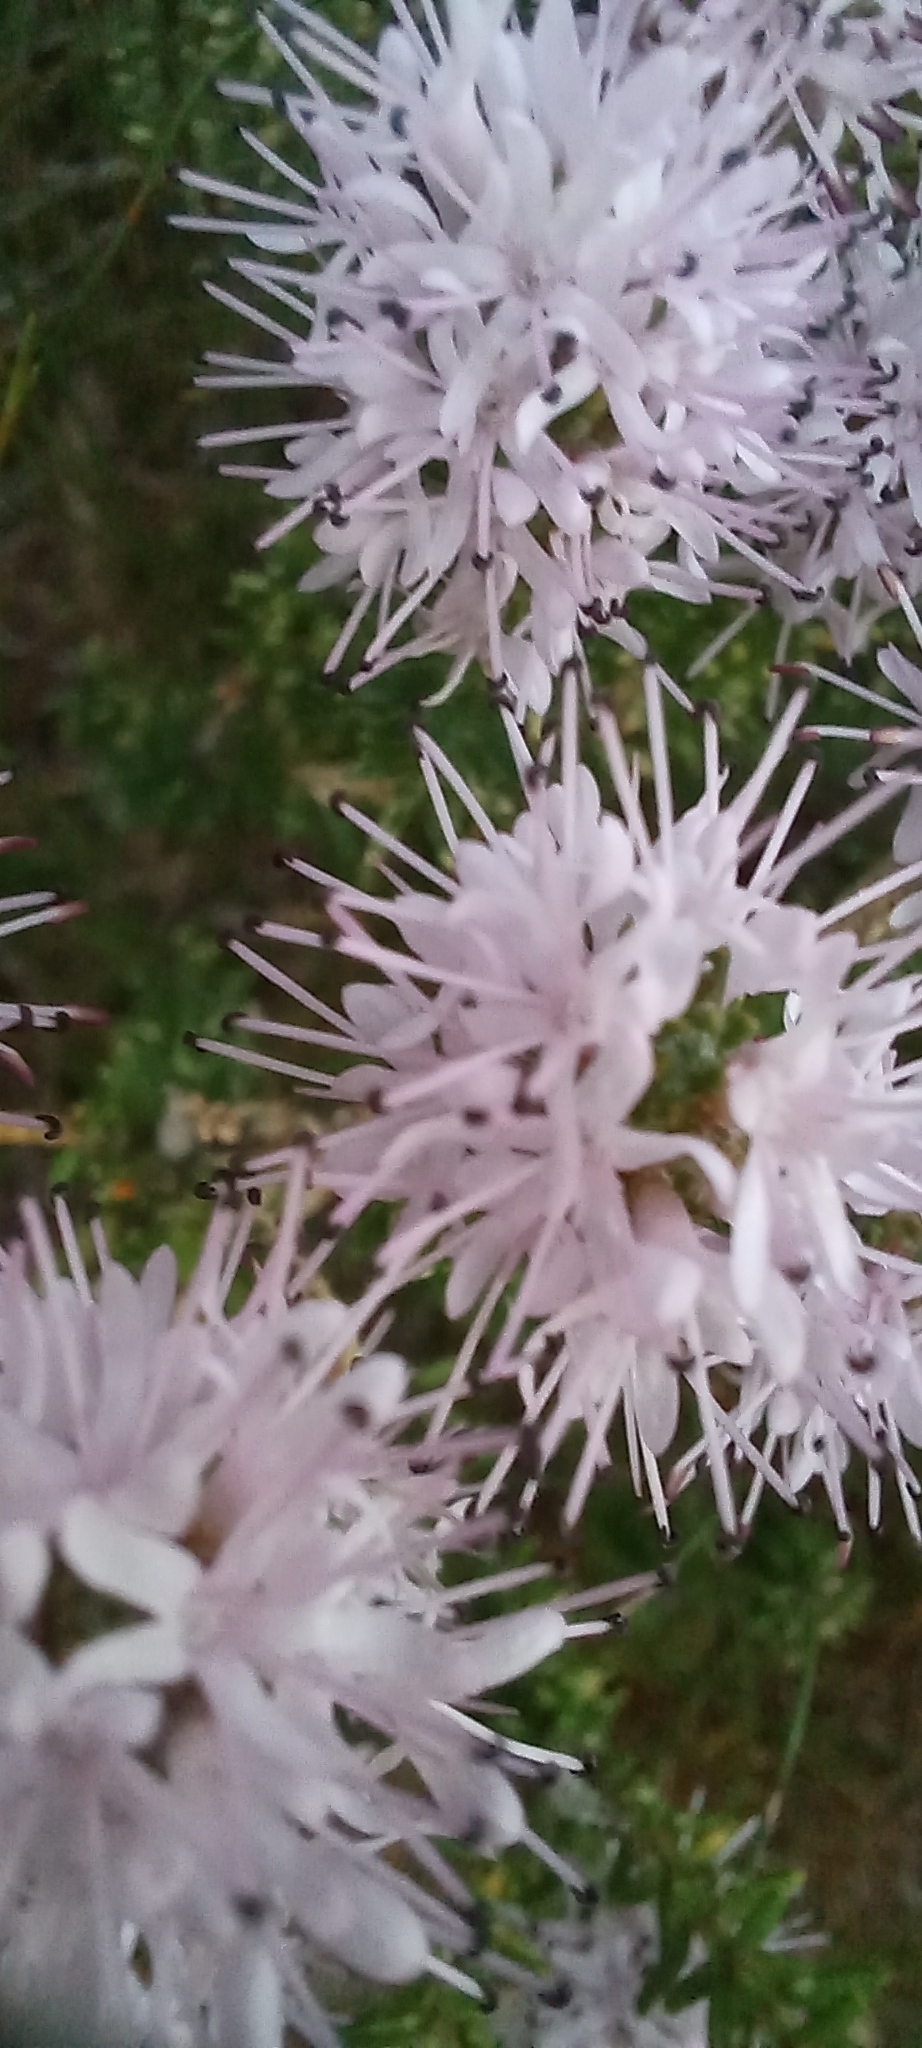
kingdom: Plantae
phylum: Tracheophyta
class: Magnoliopsida
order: Lamiales
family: Stilbaceae
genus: Stilbe
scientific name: Stilbe ericoides
